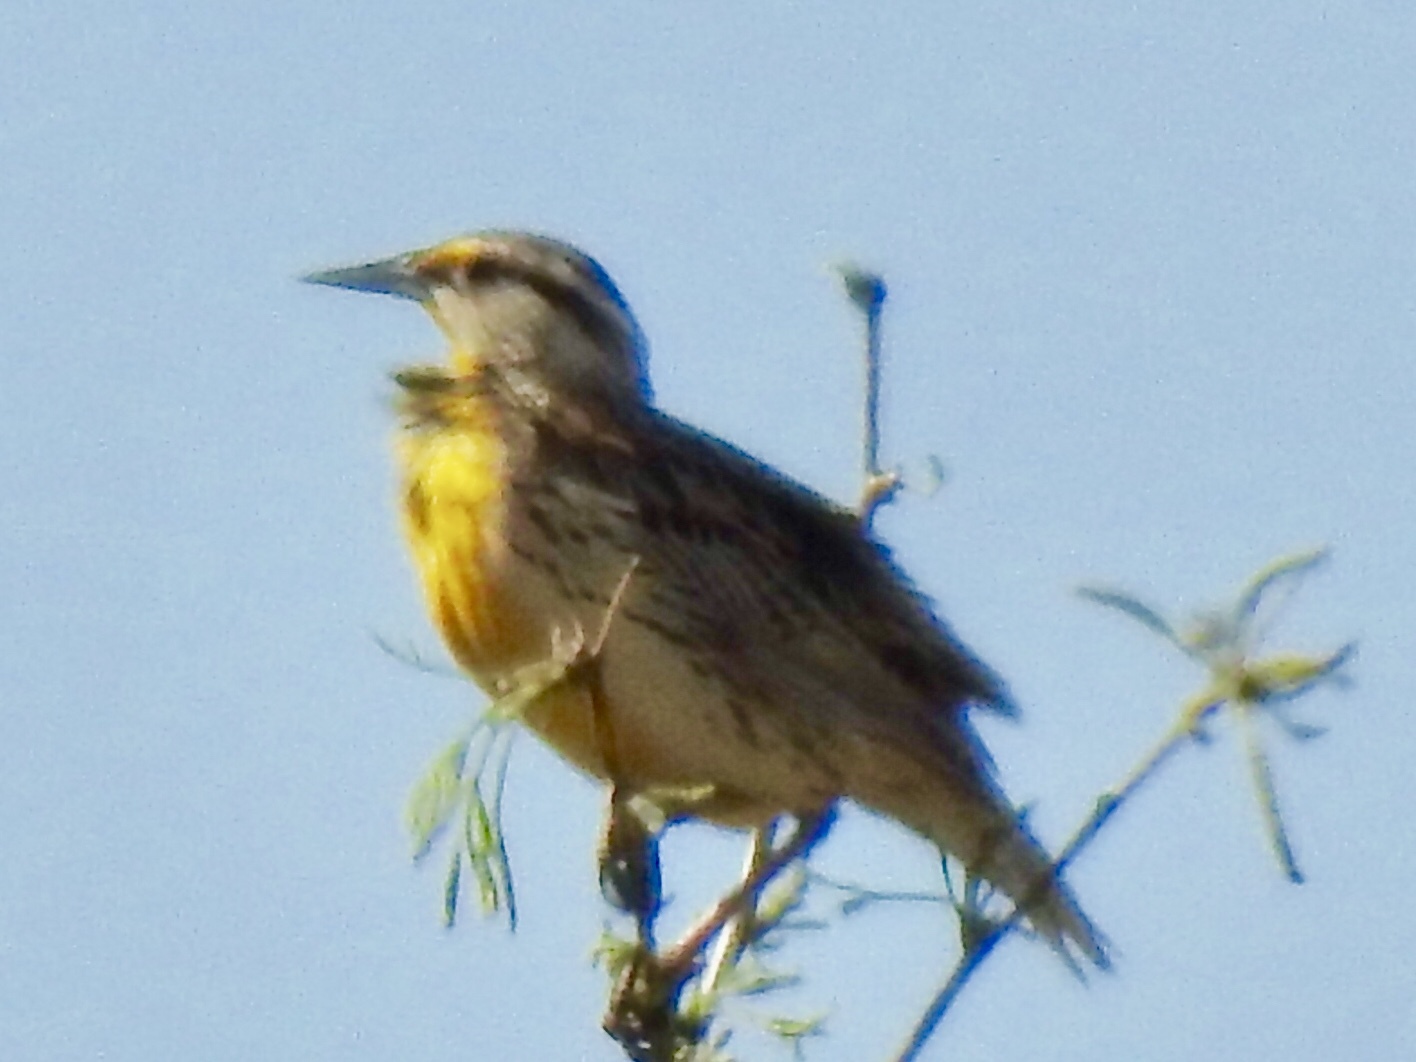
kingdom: Animalia
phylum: Chordata
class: Aves
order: Passeriformes
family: Icteridae
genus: Sturnella
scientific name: Sturnella lilianae
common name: Lilian's meadowlark
